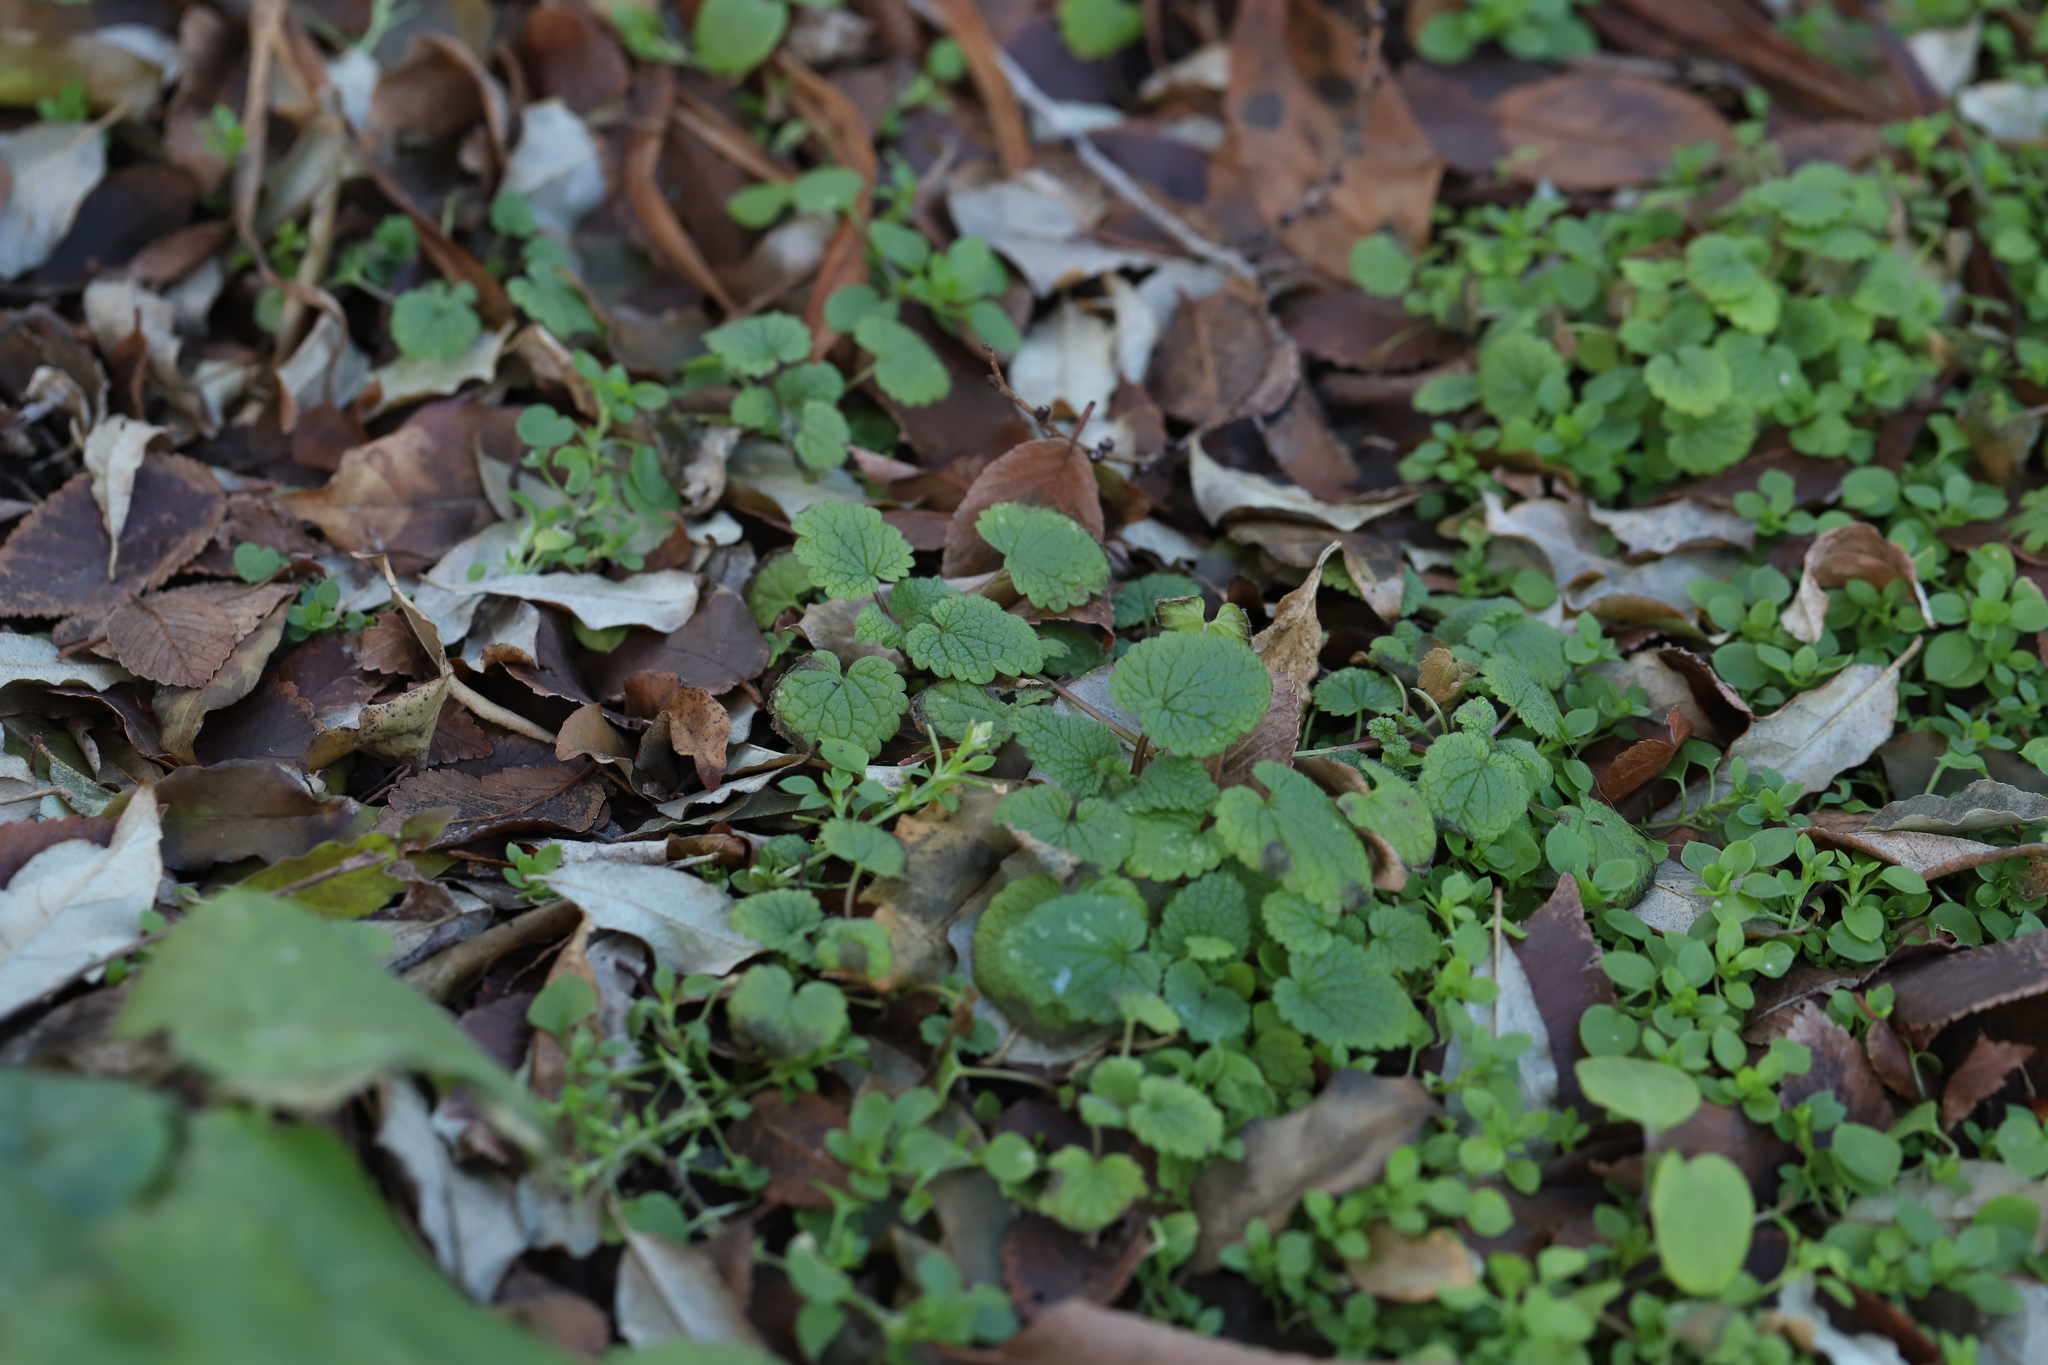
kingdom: Plantae
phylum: Tracheophyta
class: Magnoliopsida
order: Lamiales
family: Lamiaceae
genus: Lamium
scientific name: Lamium purpureum
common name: Red dead-nettle
